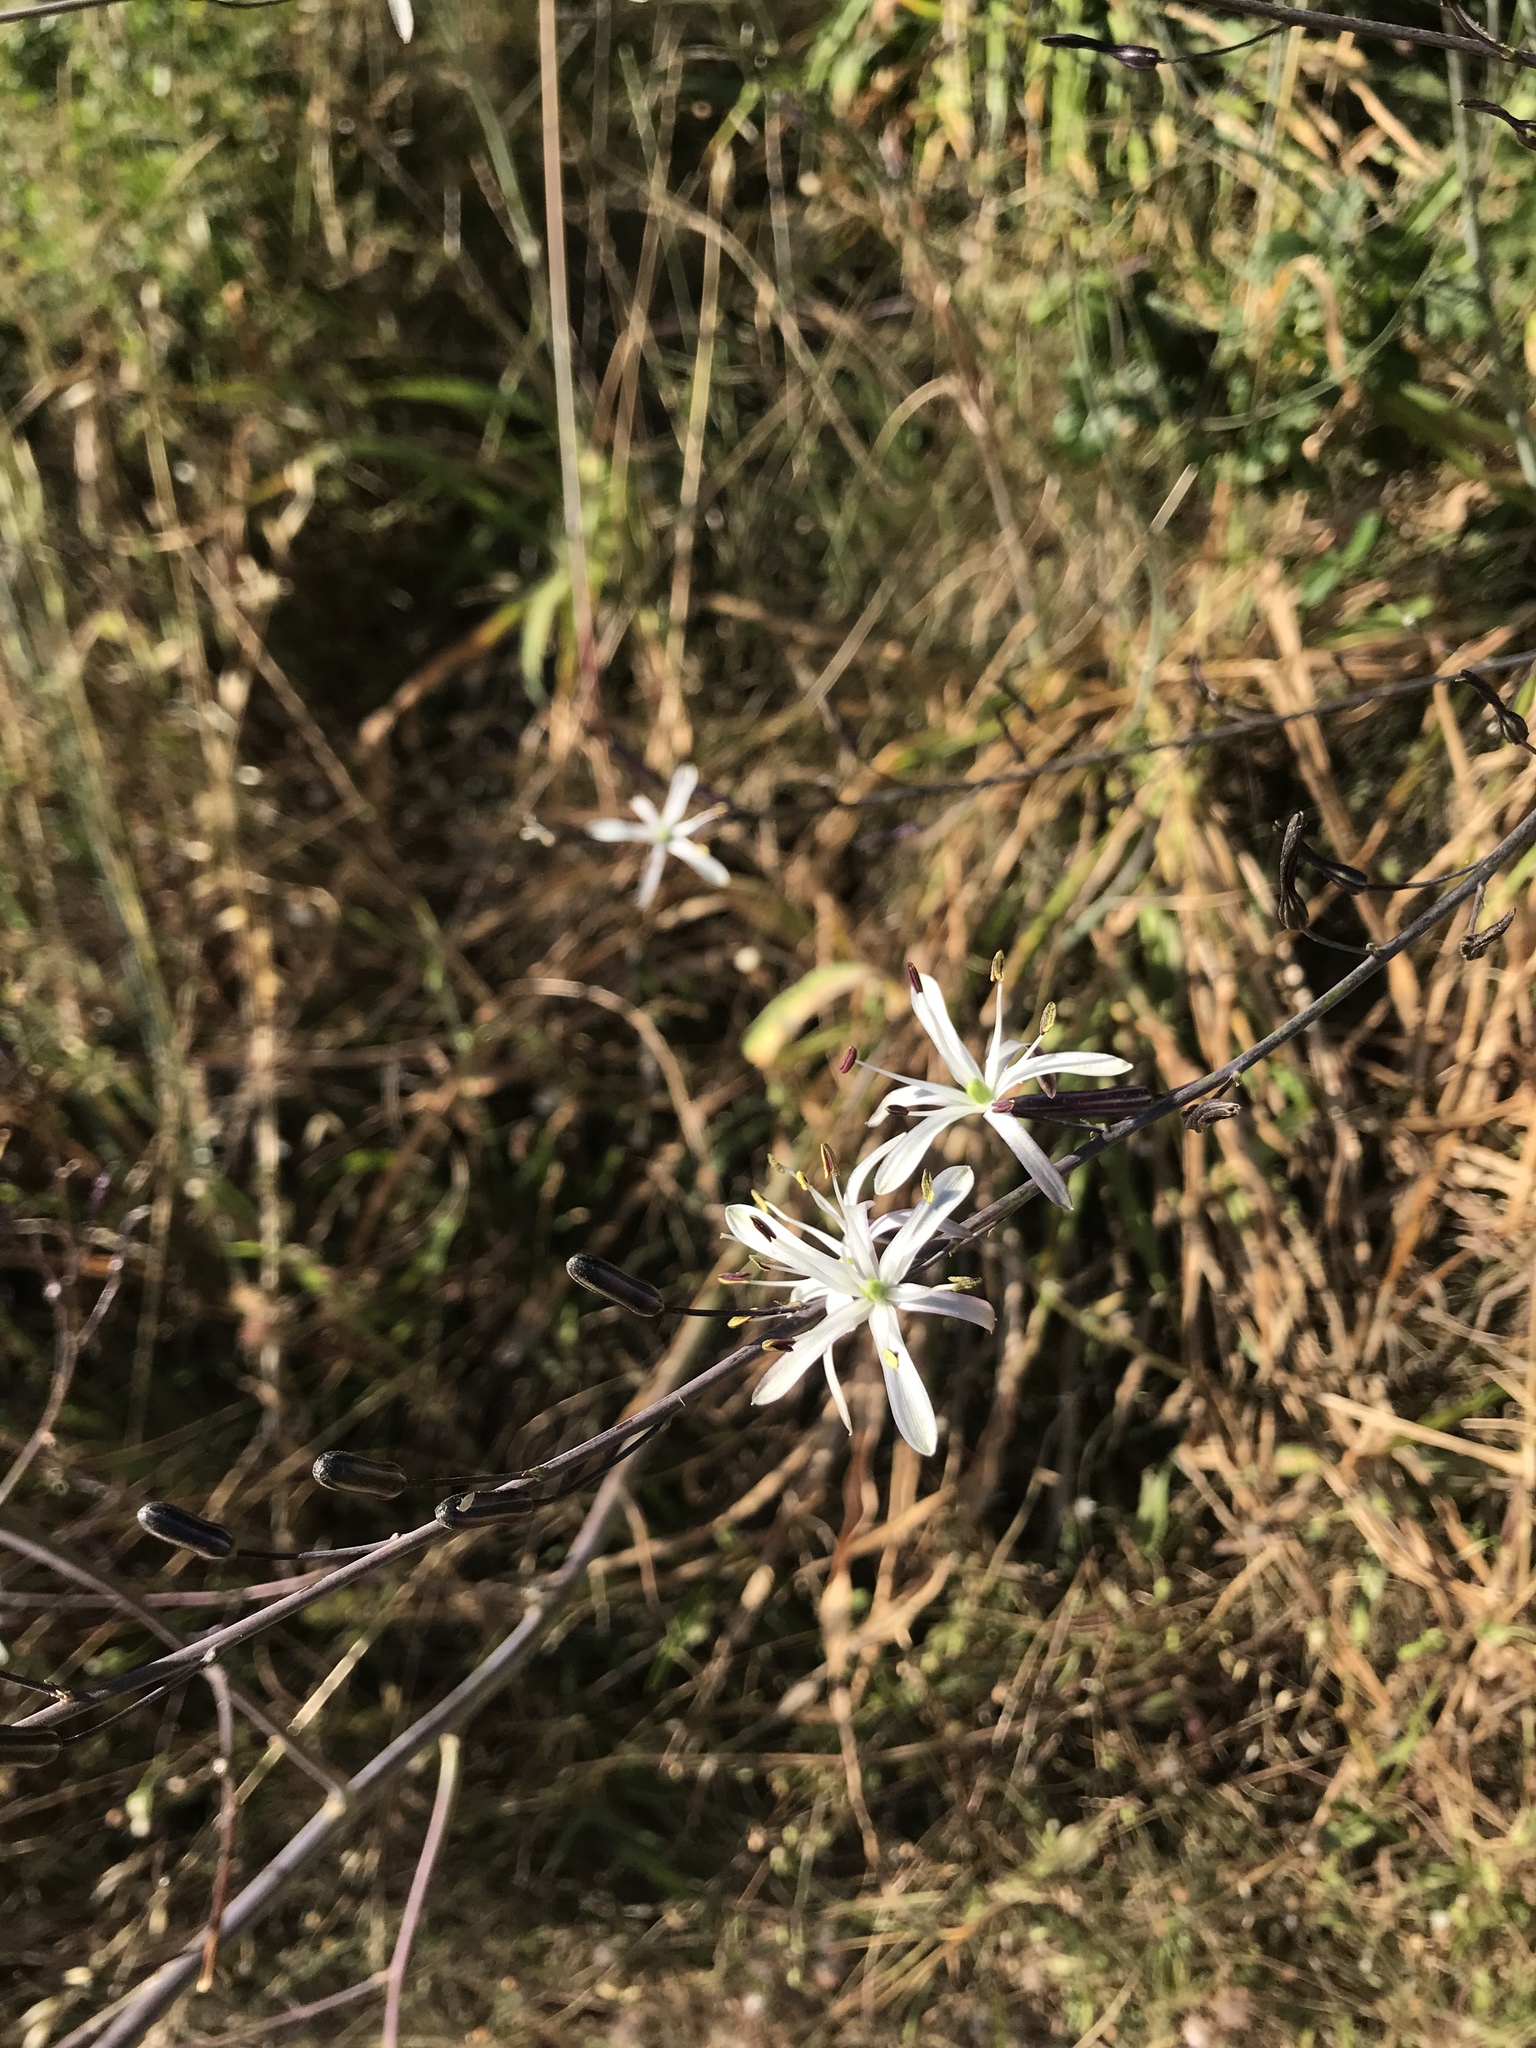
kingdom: Plantae
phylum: Tracheophyta
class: Liliopsida
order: Asparagales
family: Asparagaceae
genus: Chlorogalum
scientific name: Chlorogalum pomeridianum
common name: Amole
